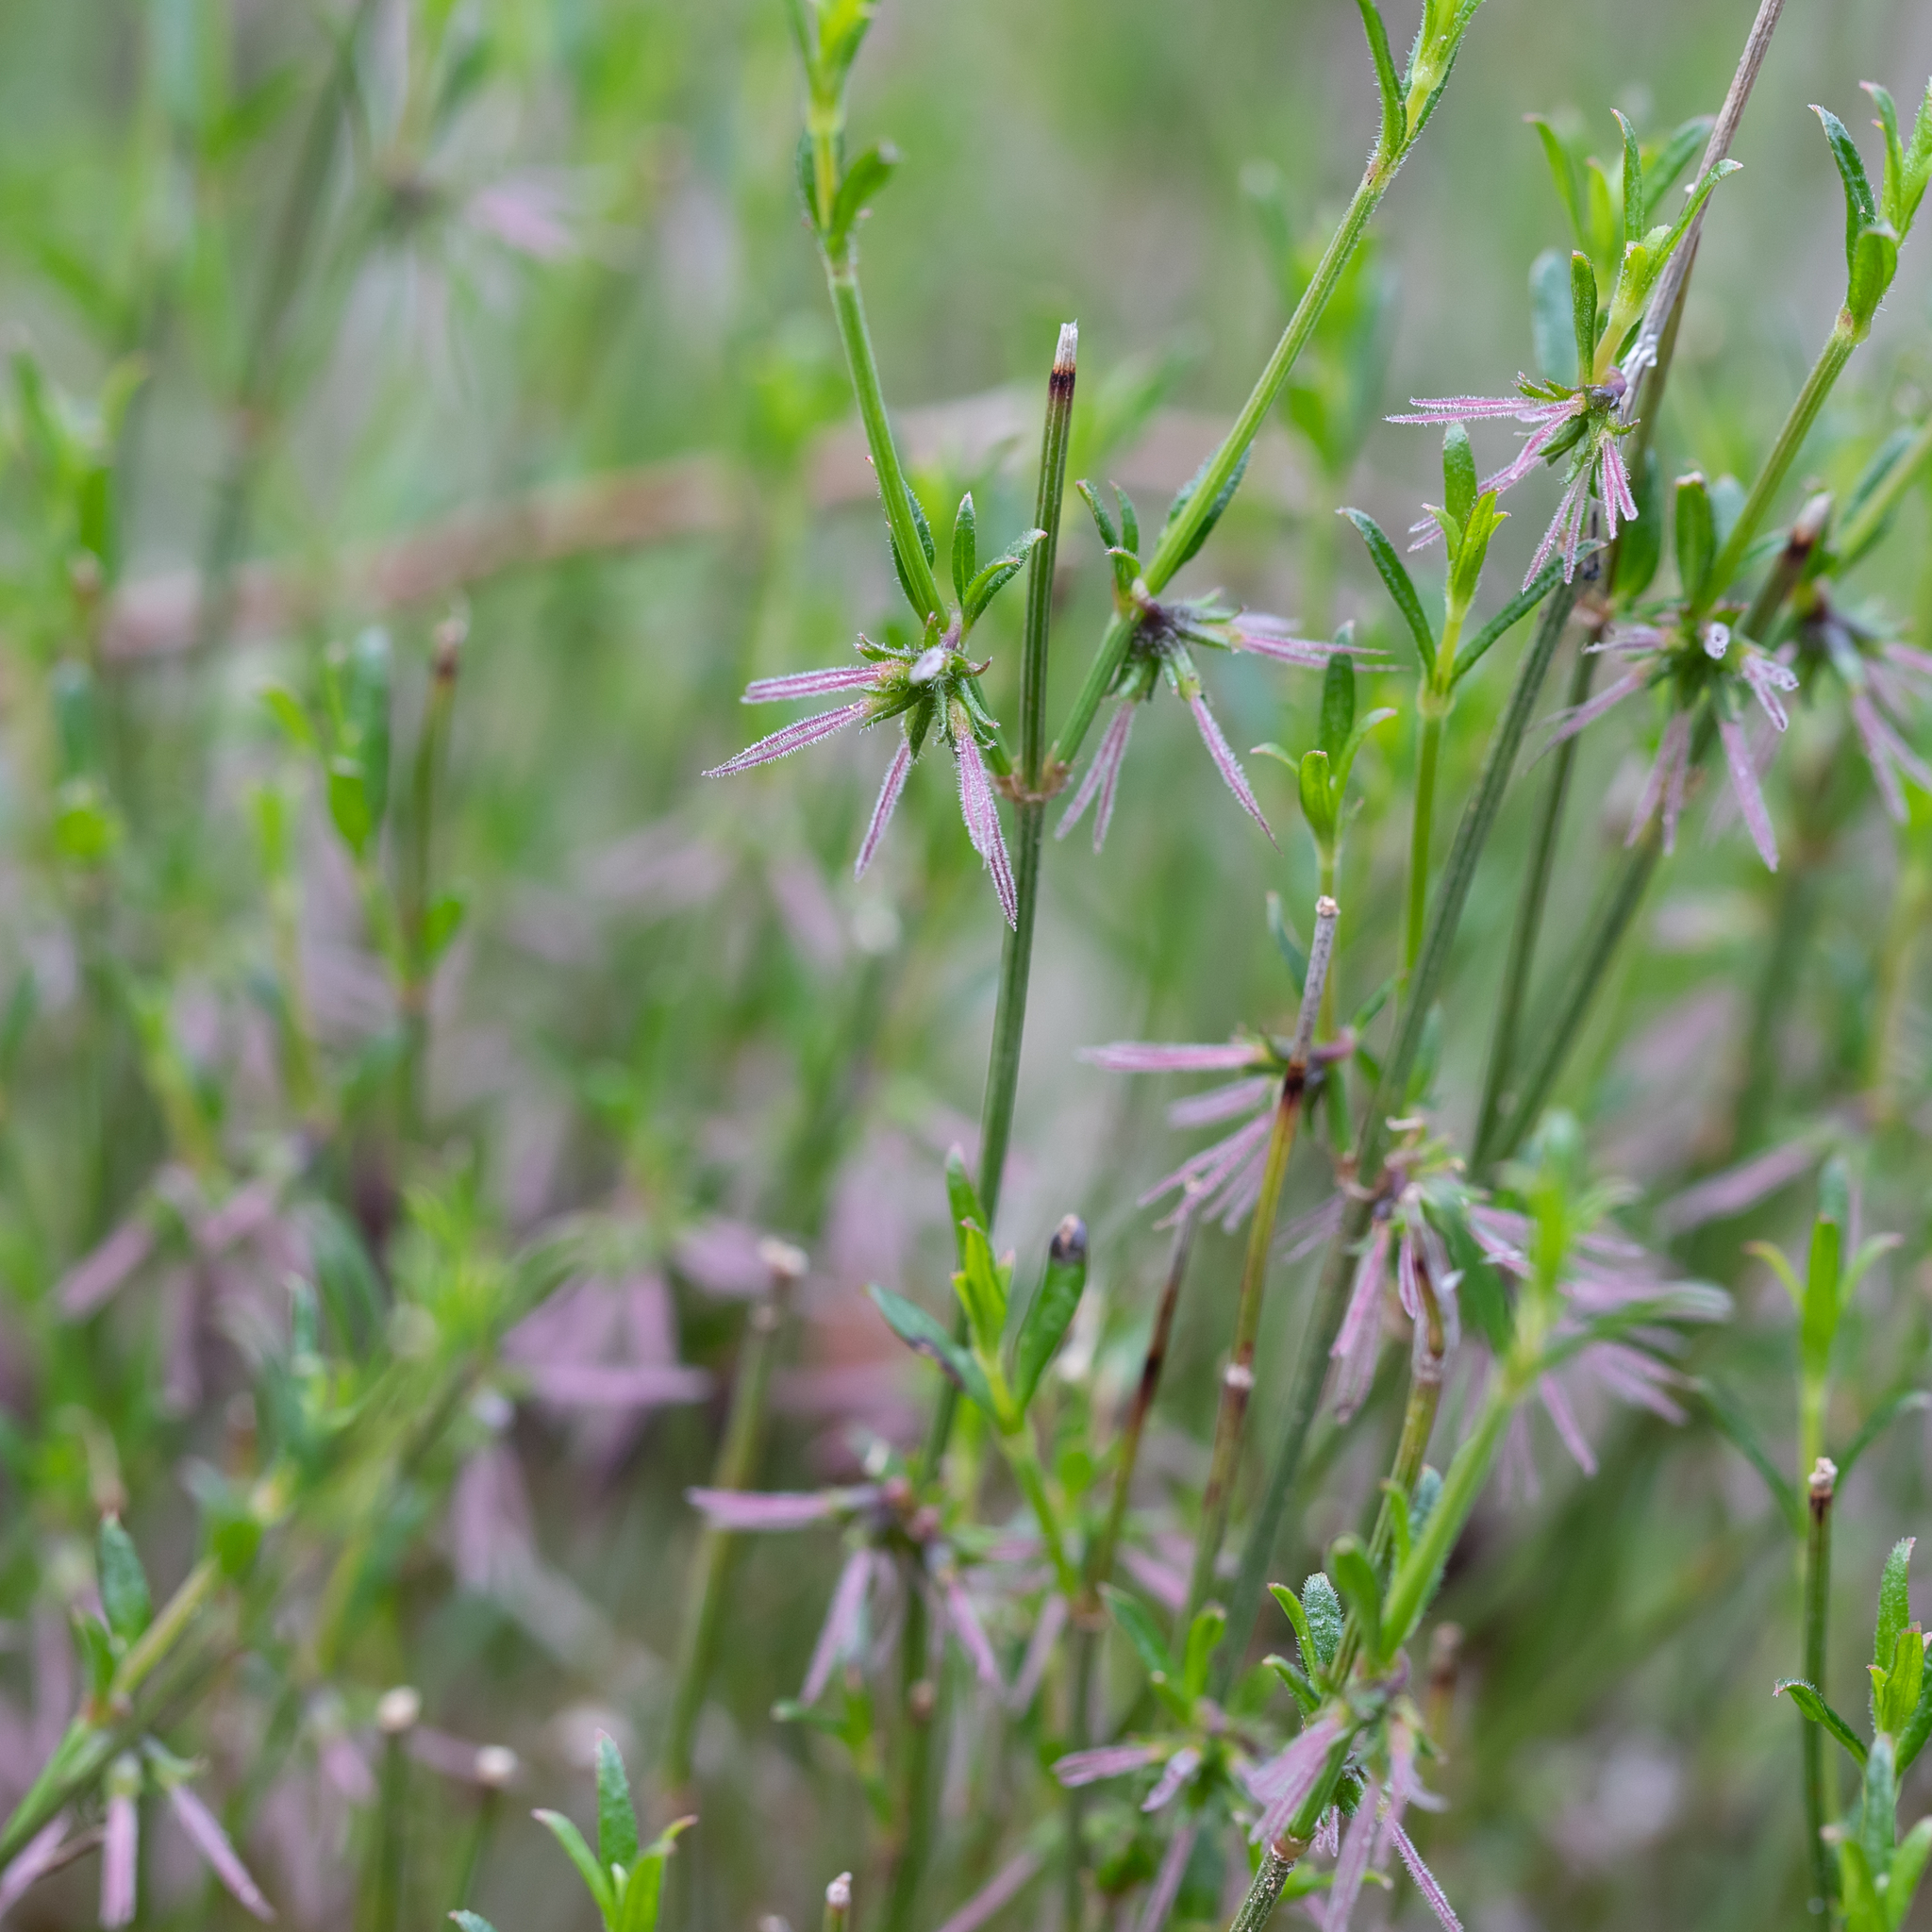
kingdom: Plantae
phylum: Tracheophyta
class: Magnoliopsida
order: Gentianales
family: Rubiaceae
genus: Opercularia
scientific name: Opercularia turpis
